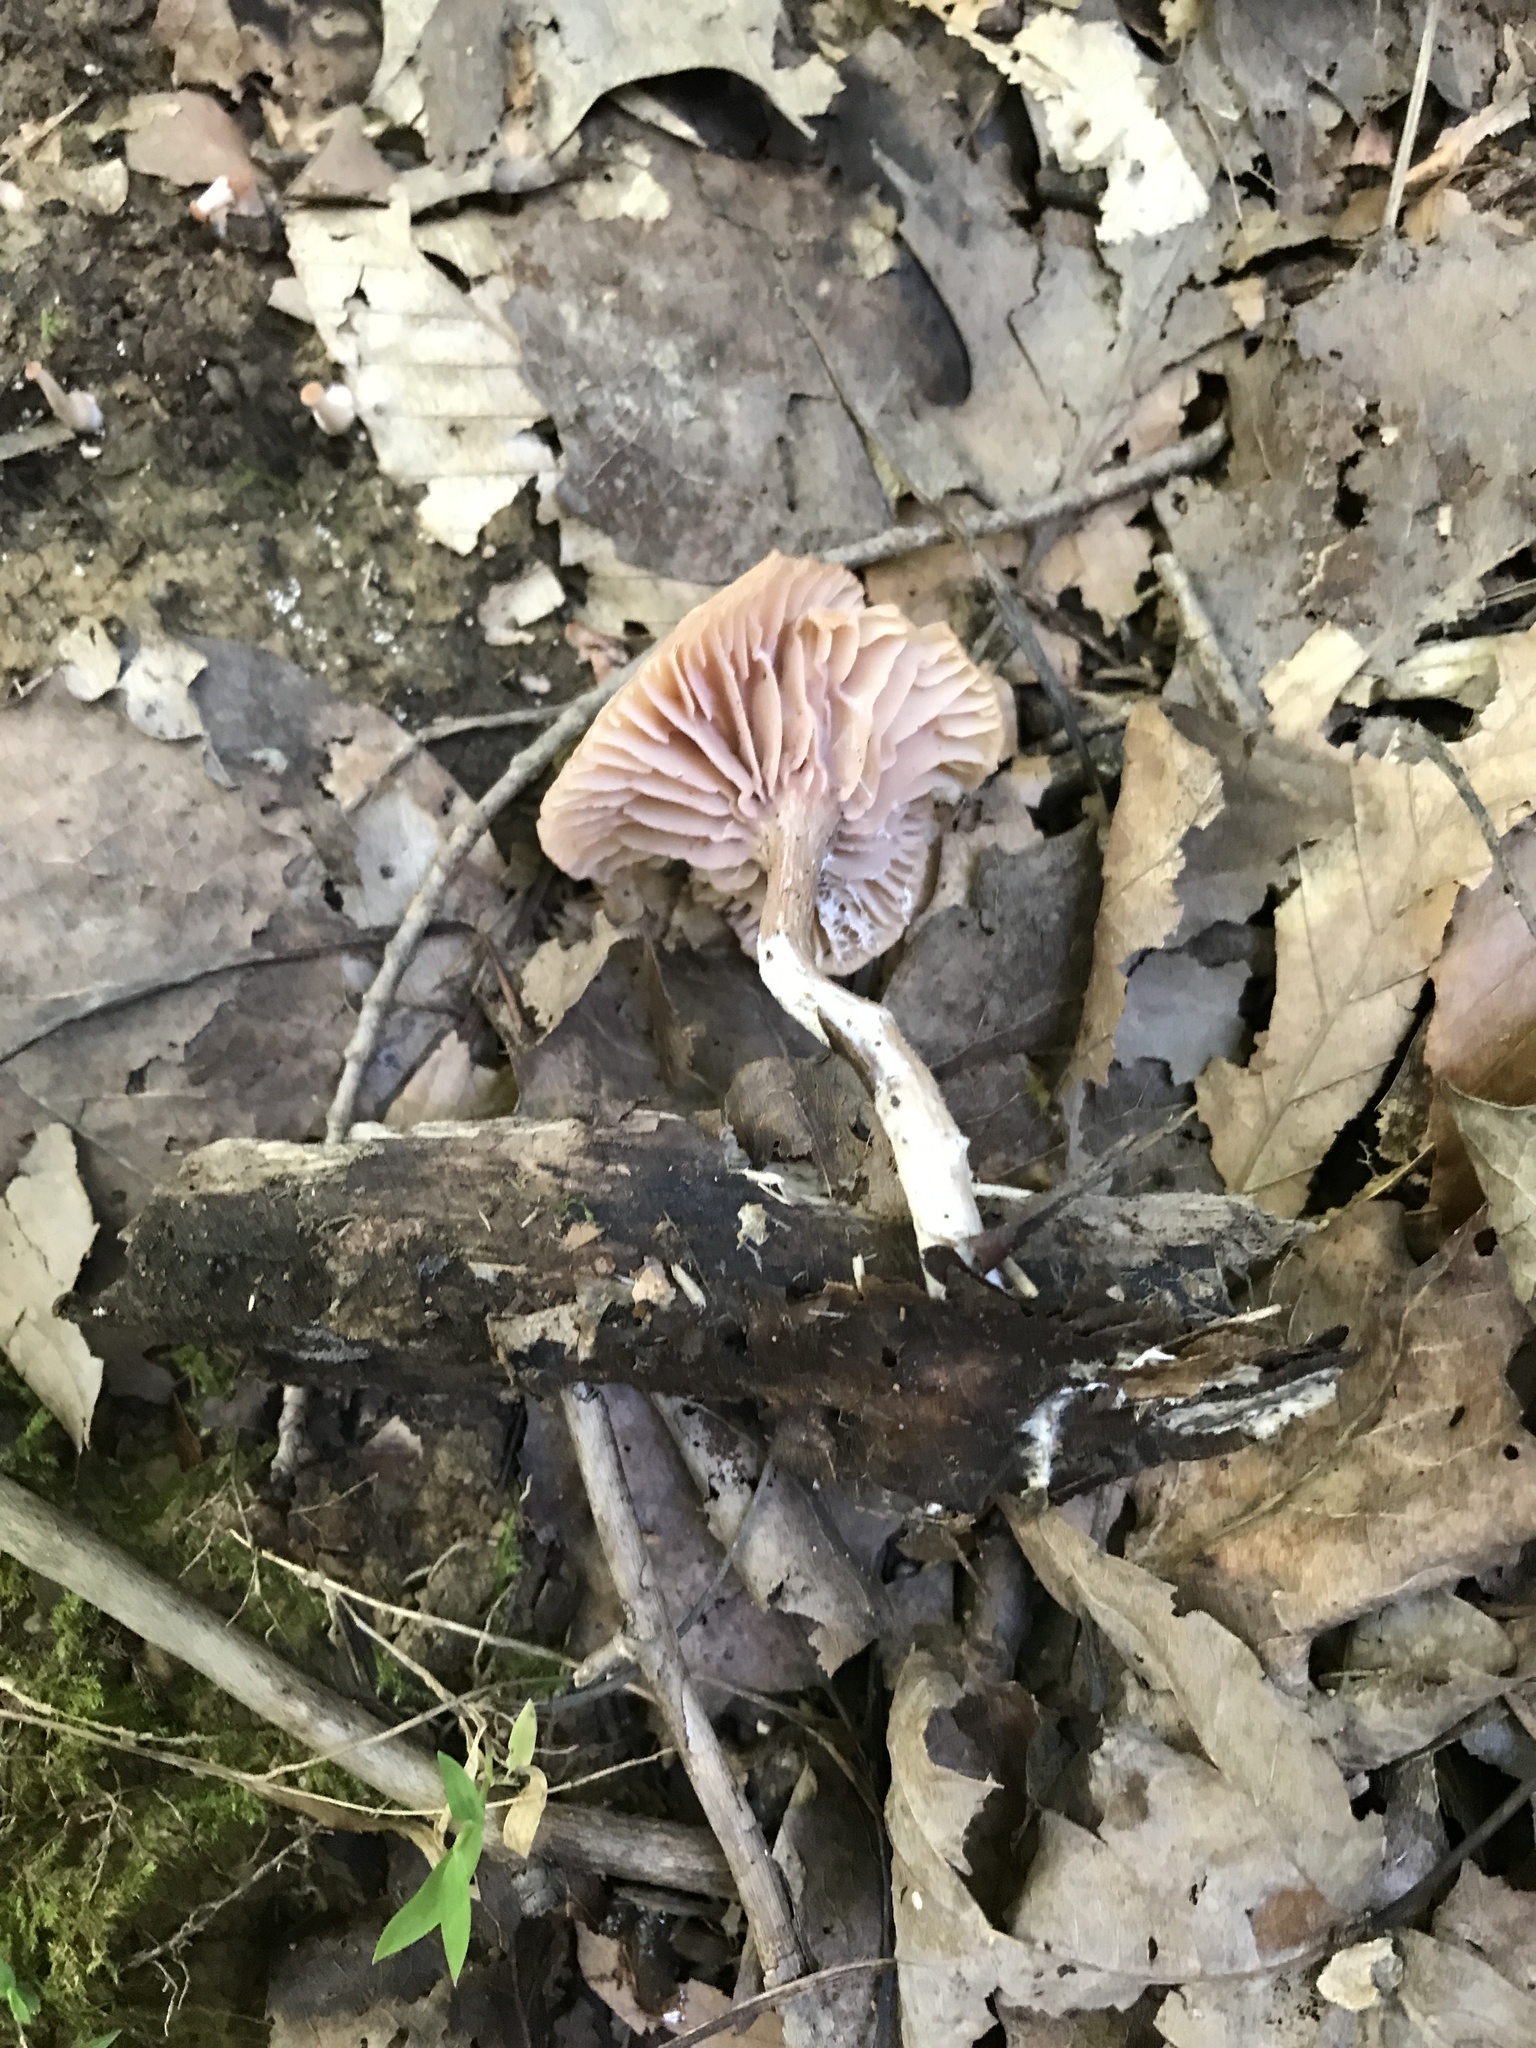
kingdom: Fungi
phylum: Basidiomycota
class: Agaricomycetes
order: Agaricales
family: Hydnangiaceae
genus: Laccaria
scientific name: Laccaria laccata
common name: Deceiver
